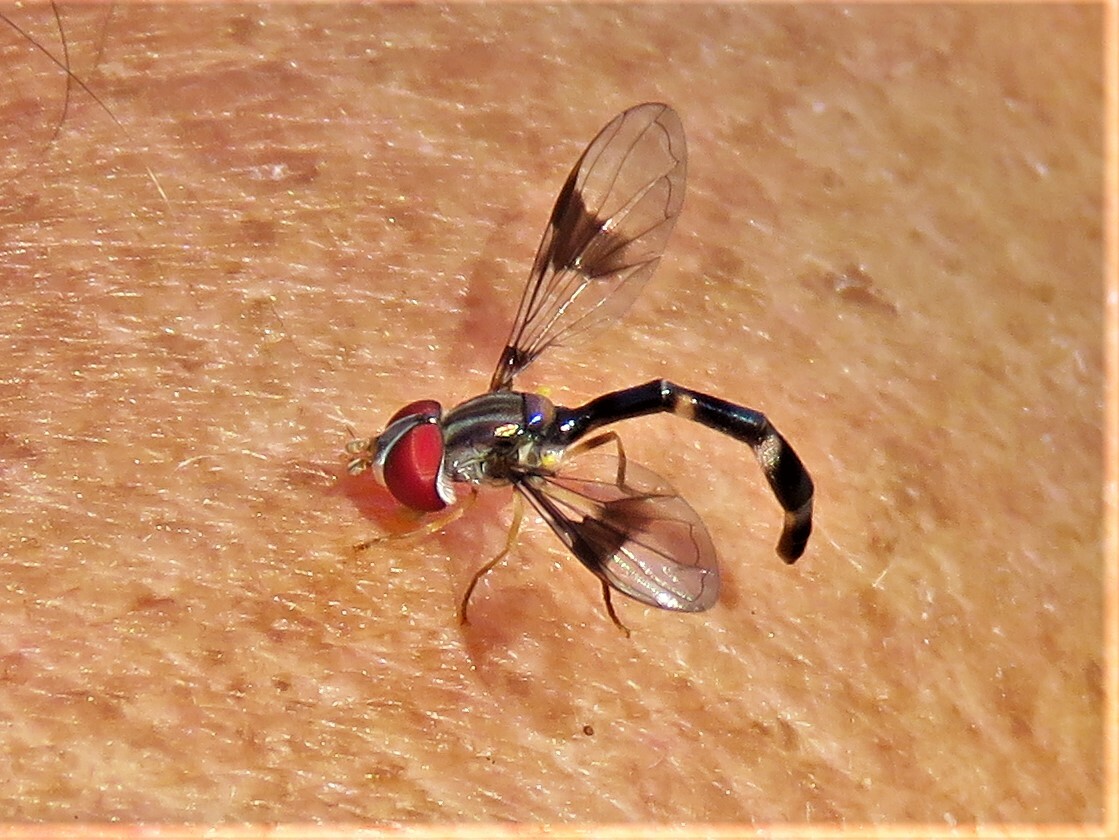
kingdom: Animalia
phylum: Arthropoda
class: Insecta
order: Diptera
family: Syrphidae
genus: Hypocritanus
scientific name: Hypocritanus fascipennis
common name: Eastern band-winged hover fly
